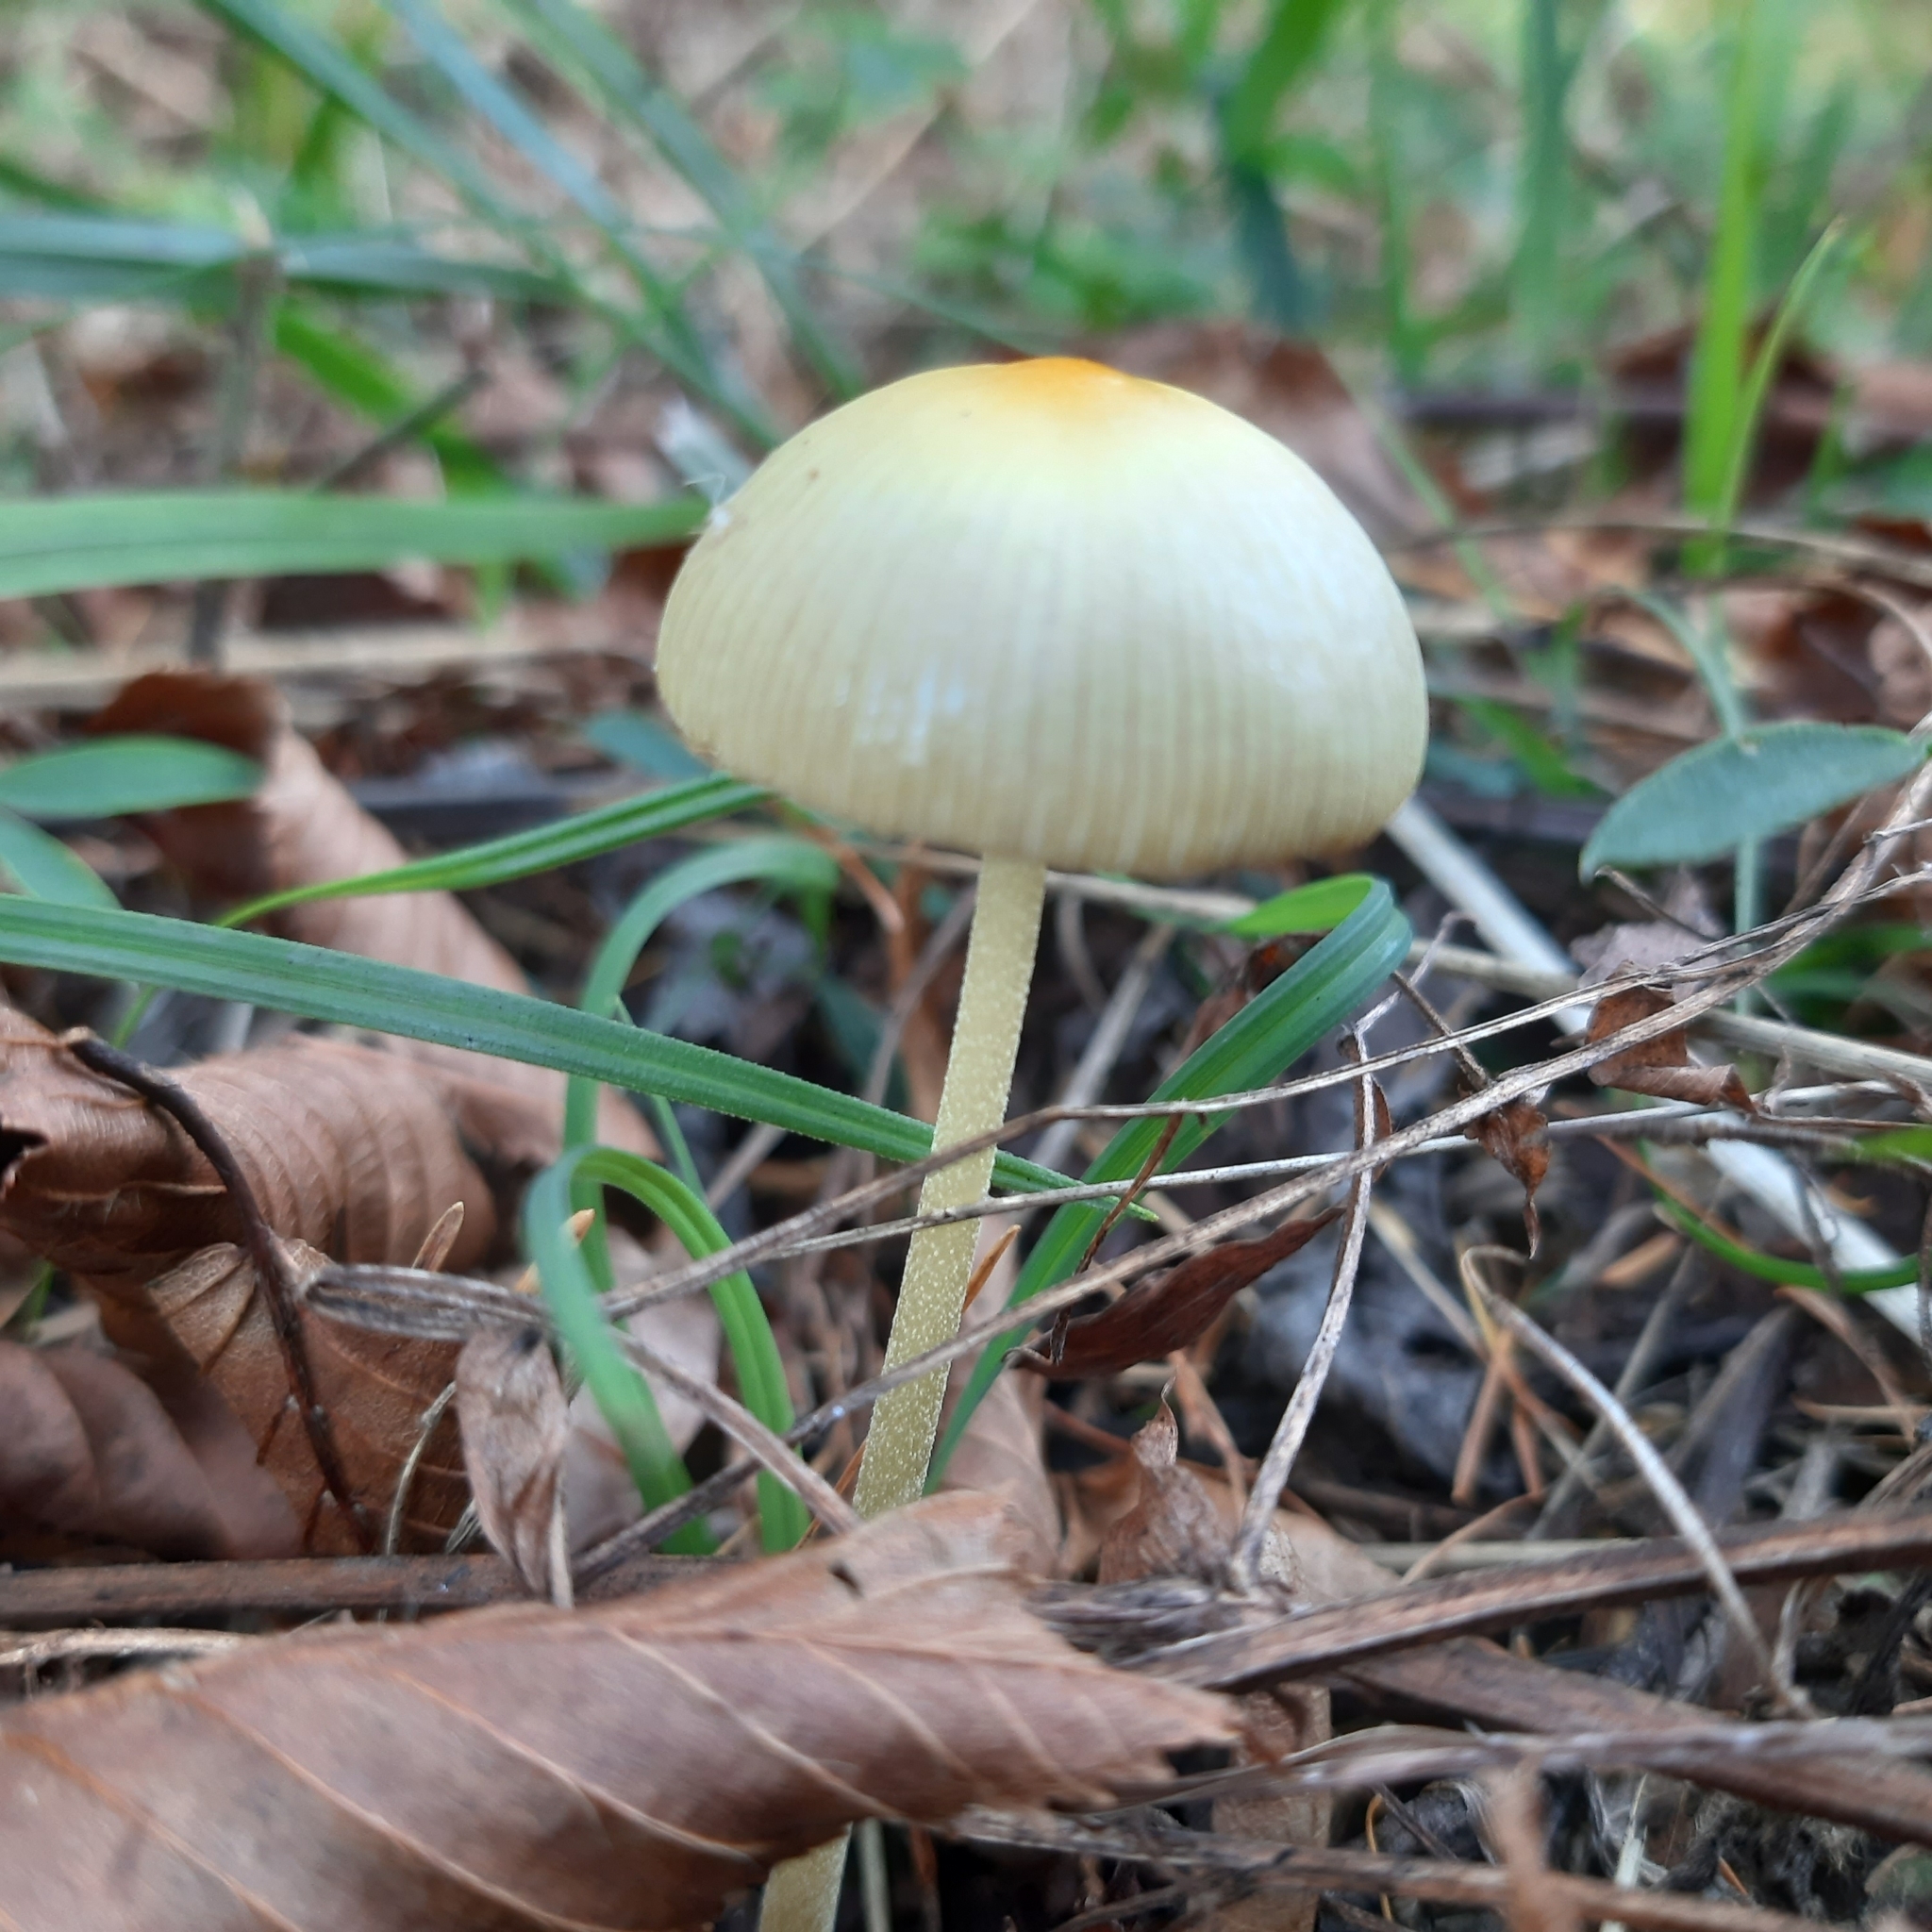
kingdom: Fungi
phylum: Basidiomycota
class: Agaricomycetes
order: Agaricales
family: Bolbitiaceae
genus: Bolbitius
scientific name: Bolbitius titubans
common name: Yellow fieldcap
